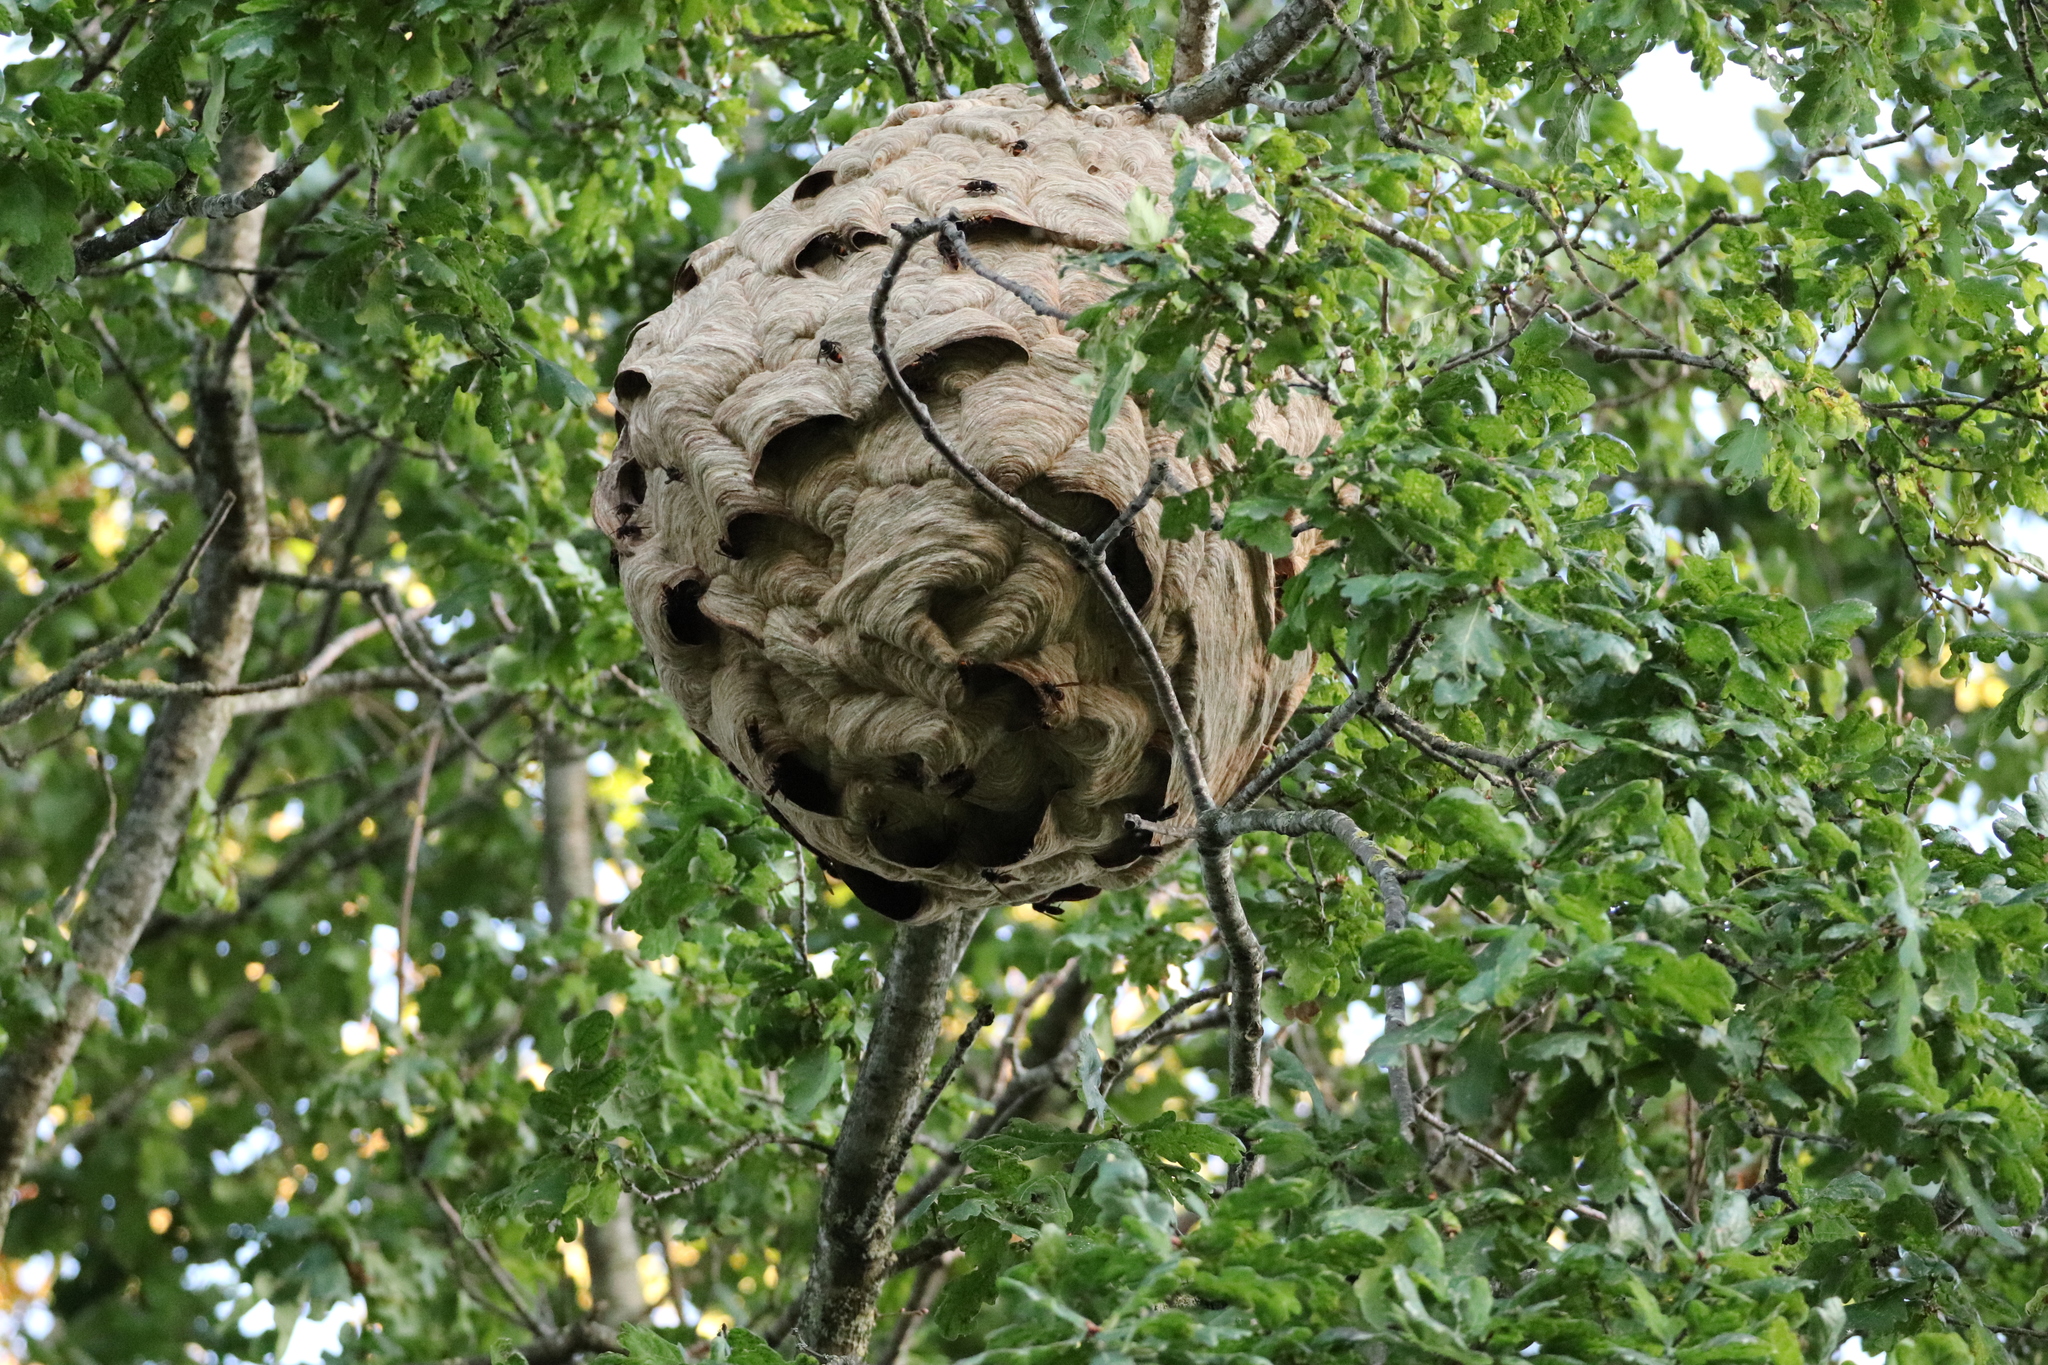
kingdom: Animalia
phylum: Arthropoda
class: Insecta
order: Hymenoptera
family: Vespidae
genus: Vespa
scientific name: Vespa velutina
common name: Asian hornet
